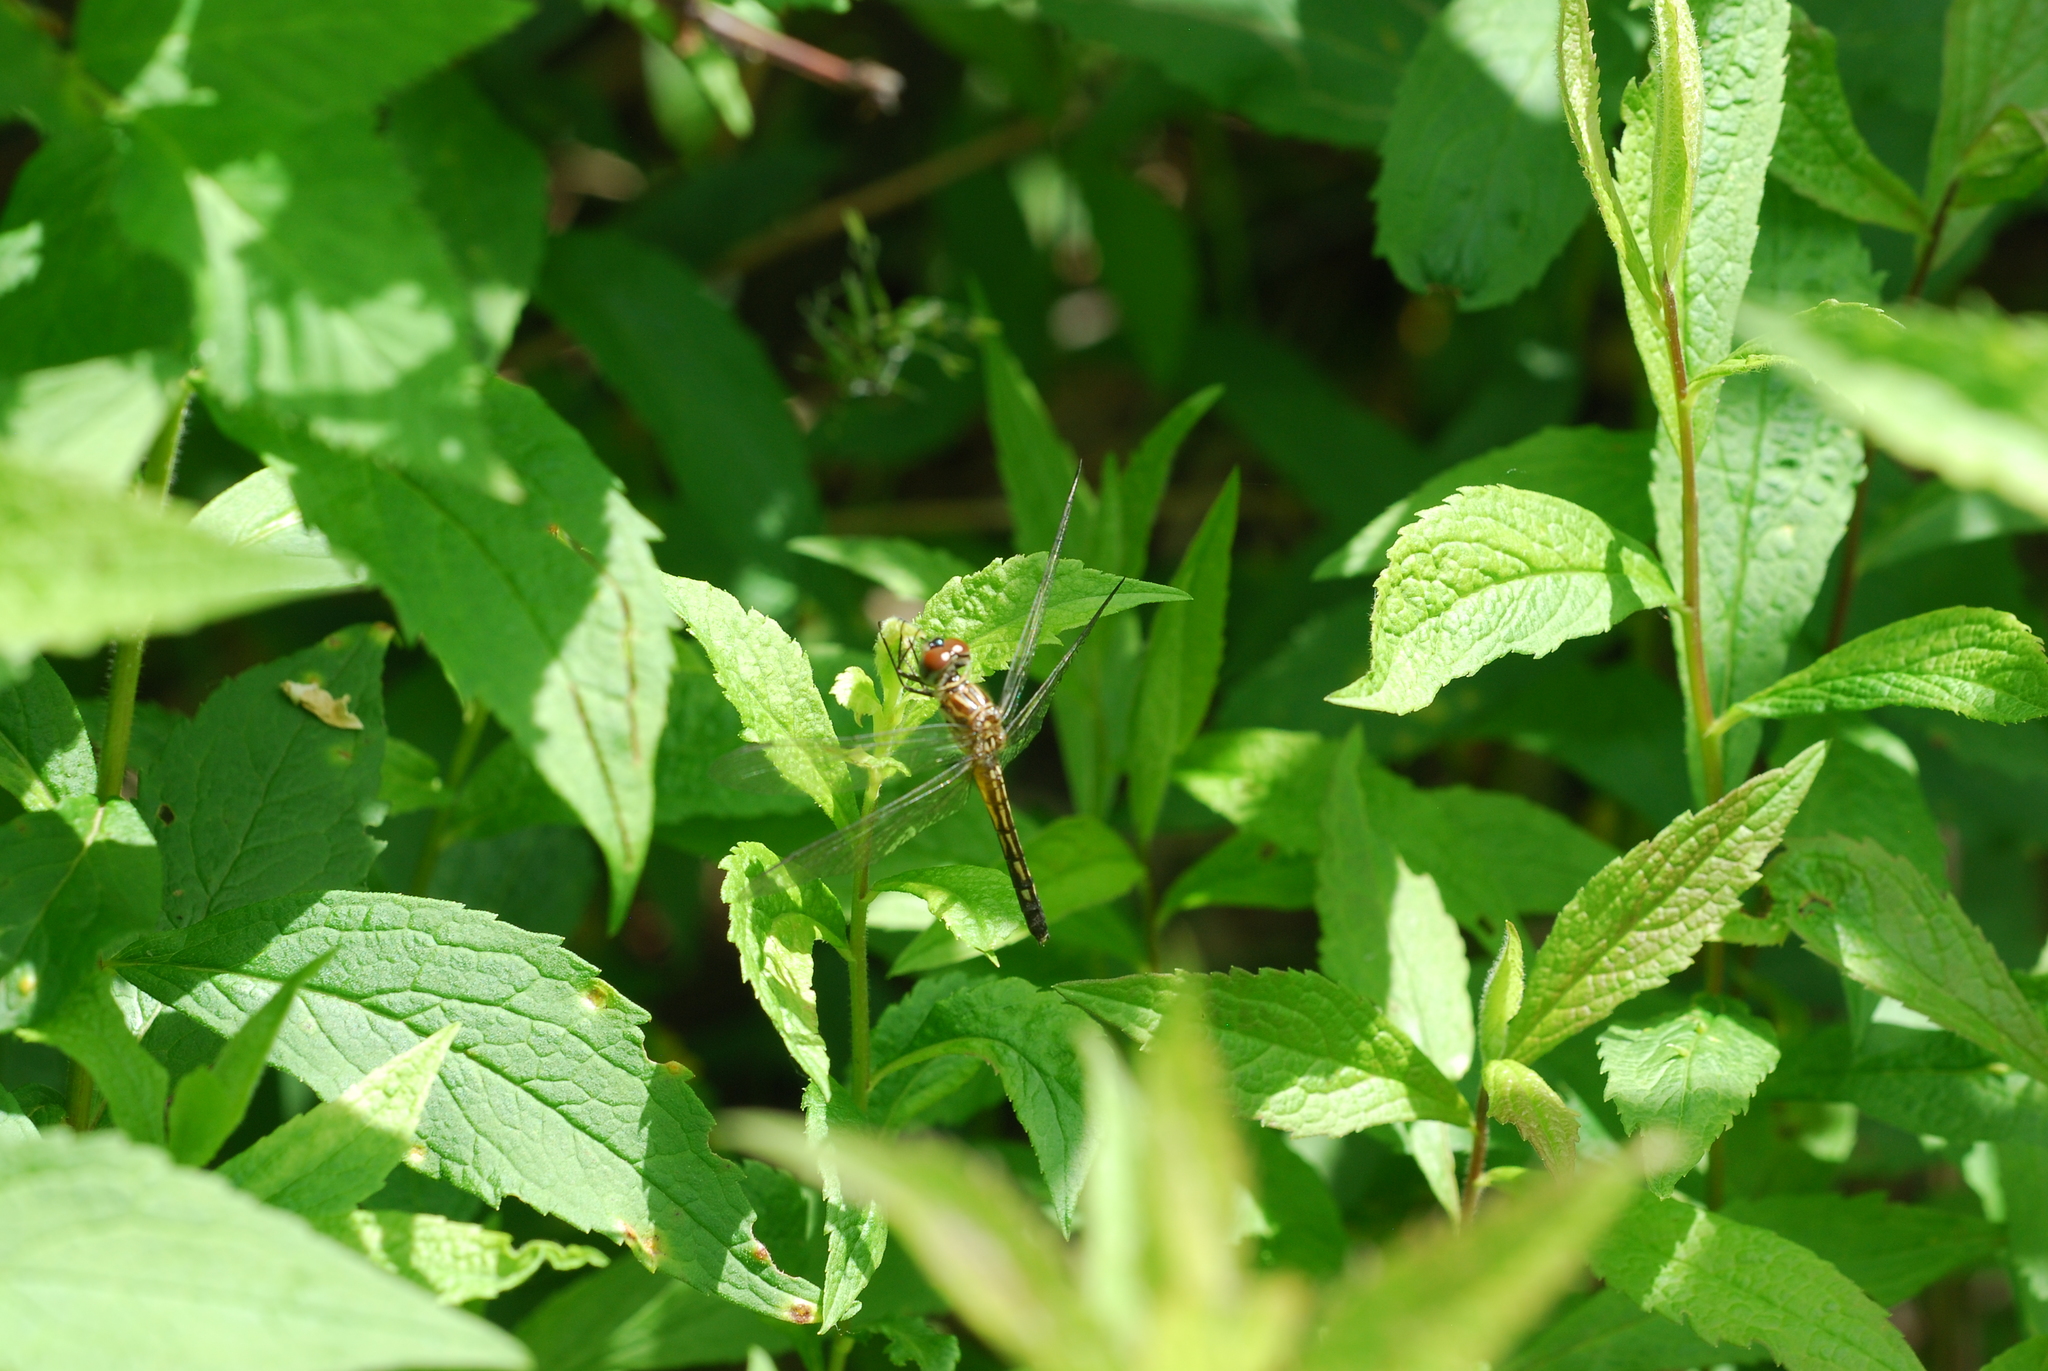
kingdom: Animalia
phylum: Arthropoda
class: Insecta
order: Odonata
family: Libellulidae
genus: Pachydiplax
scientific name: Pachydiplax longipennis
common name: Blue dasher
